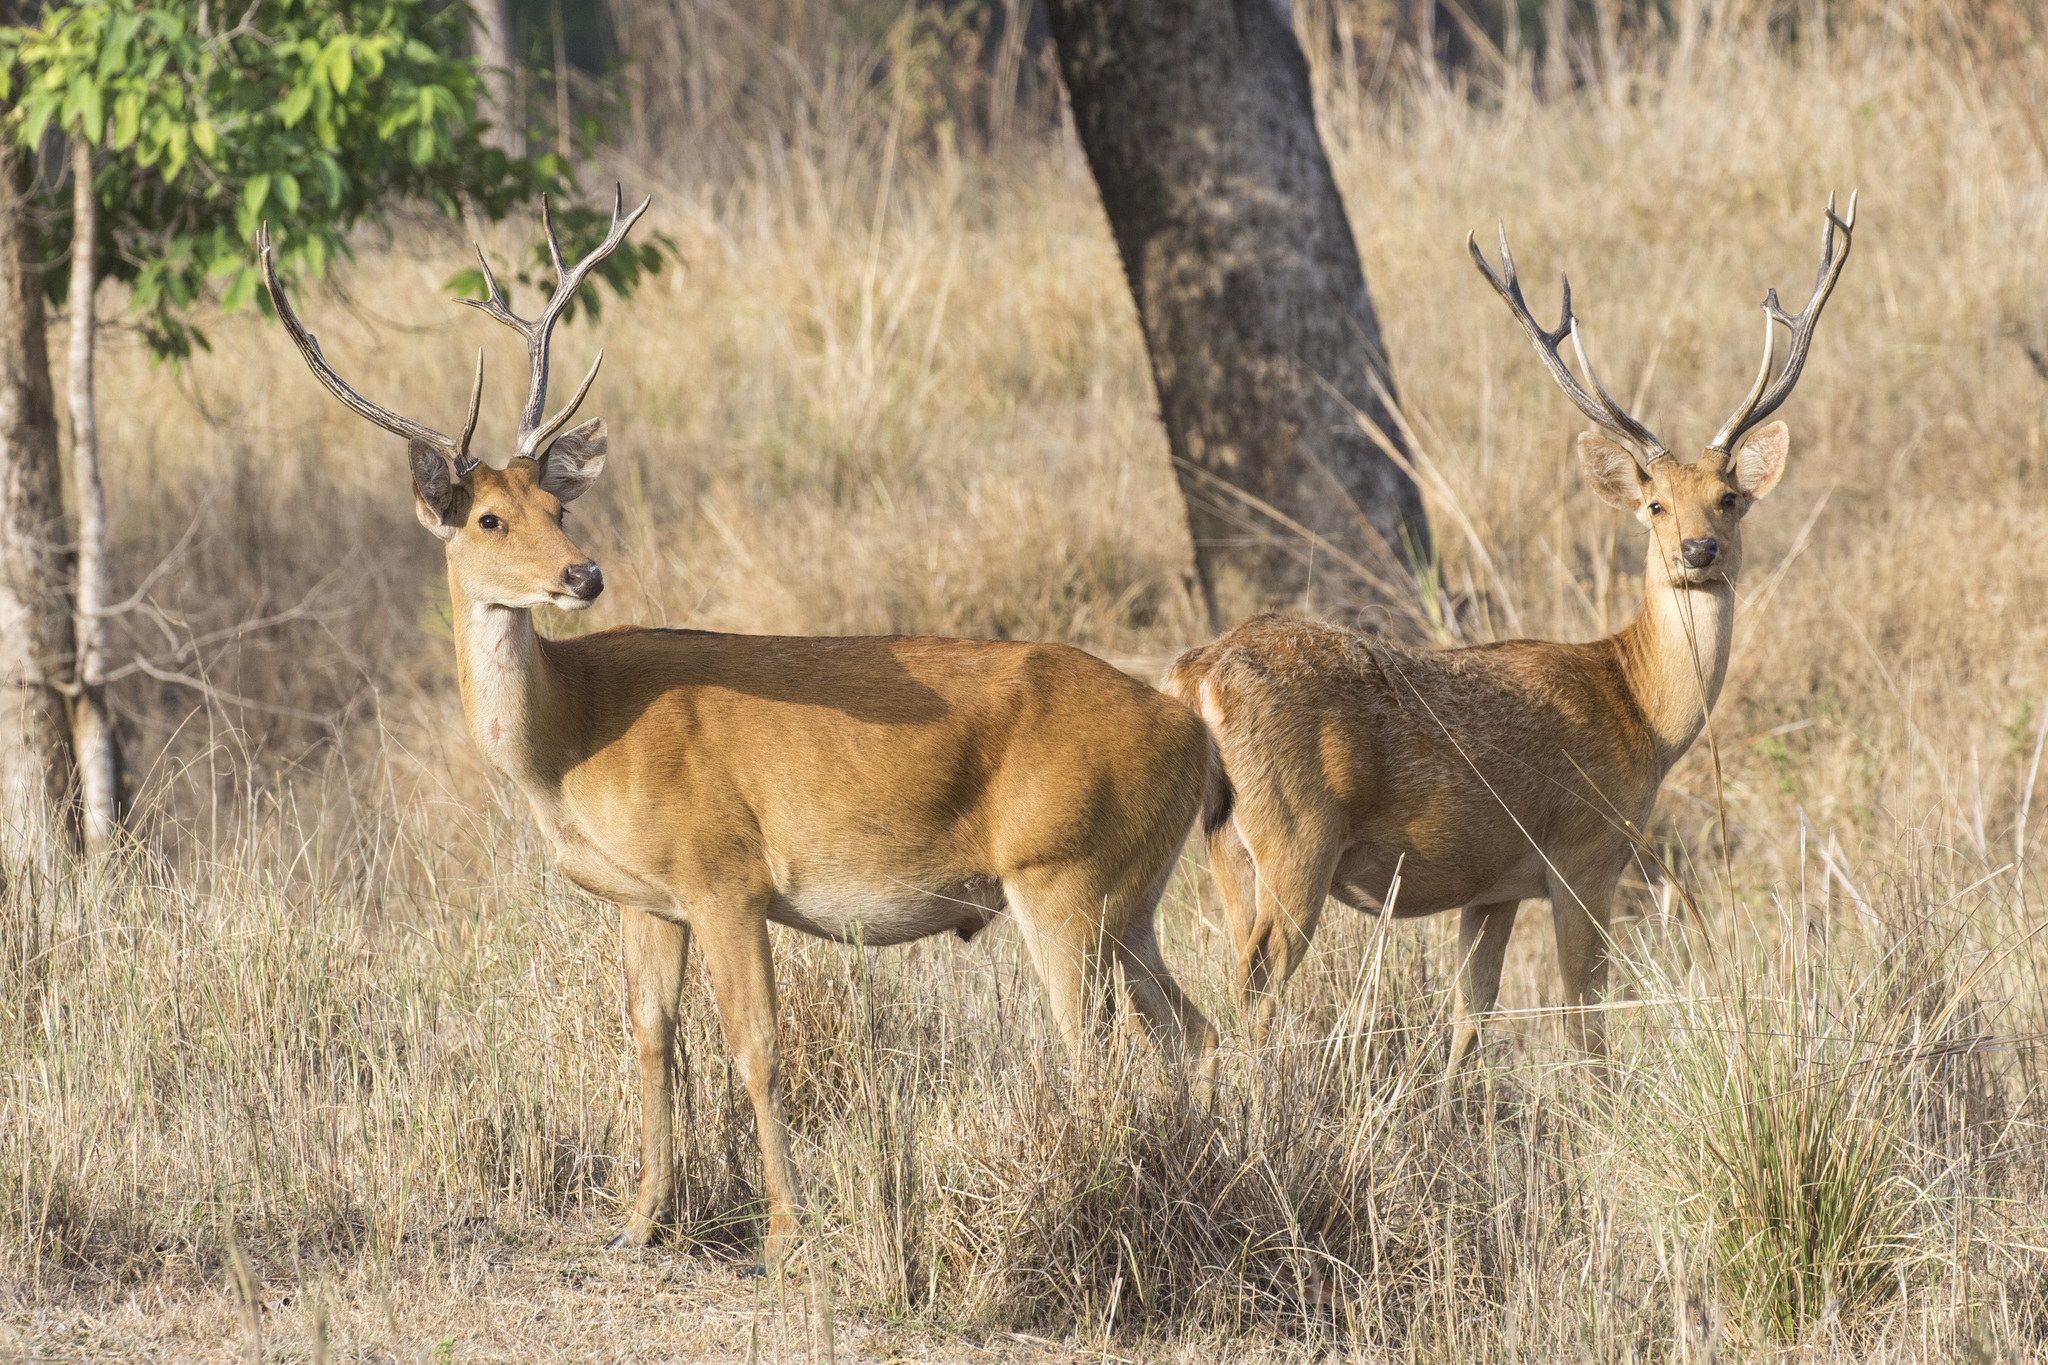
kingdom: Animalia
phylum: Chordata
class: Mammalia
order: Artiodactyla
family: Cervidae
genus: Rucervus
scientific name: Rucervus duvaucelii
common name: Barasingha
